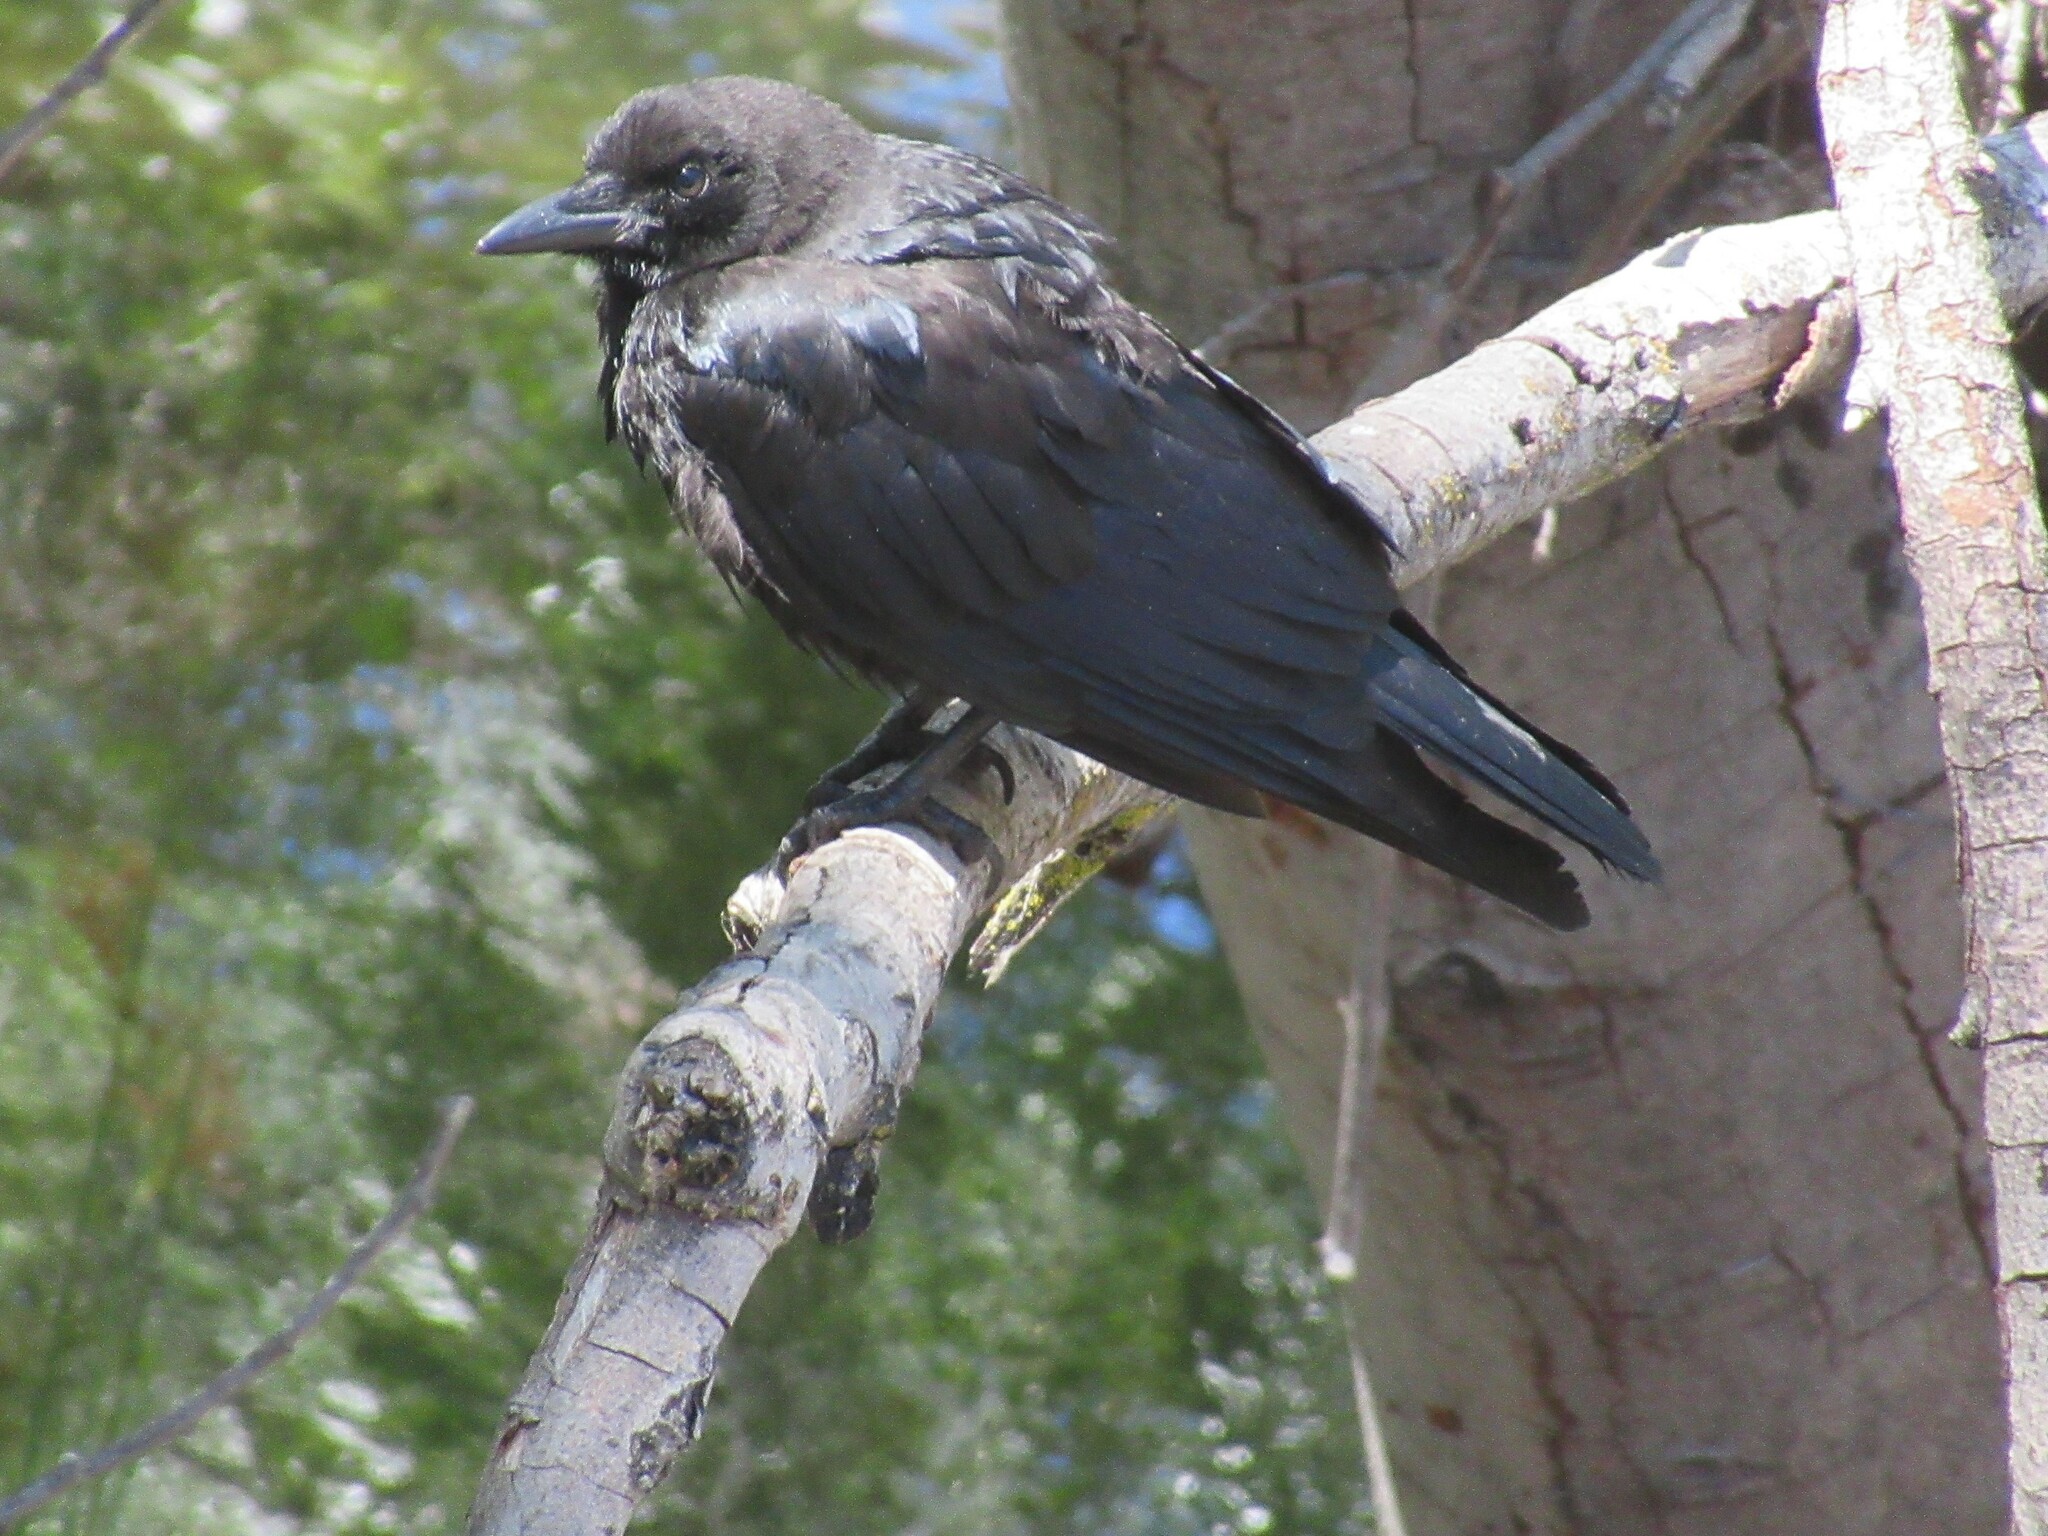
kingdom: Animalia
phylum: Chordata
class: Aves
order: Passeriformes
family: Corvidae
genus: Corvus
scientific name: Corvus brachyrhynchos
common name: American crow
